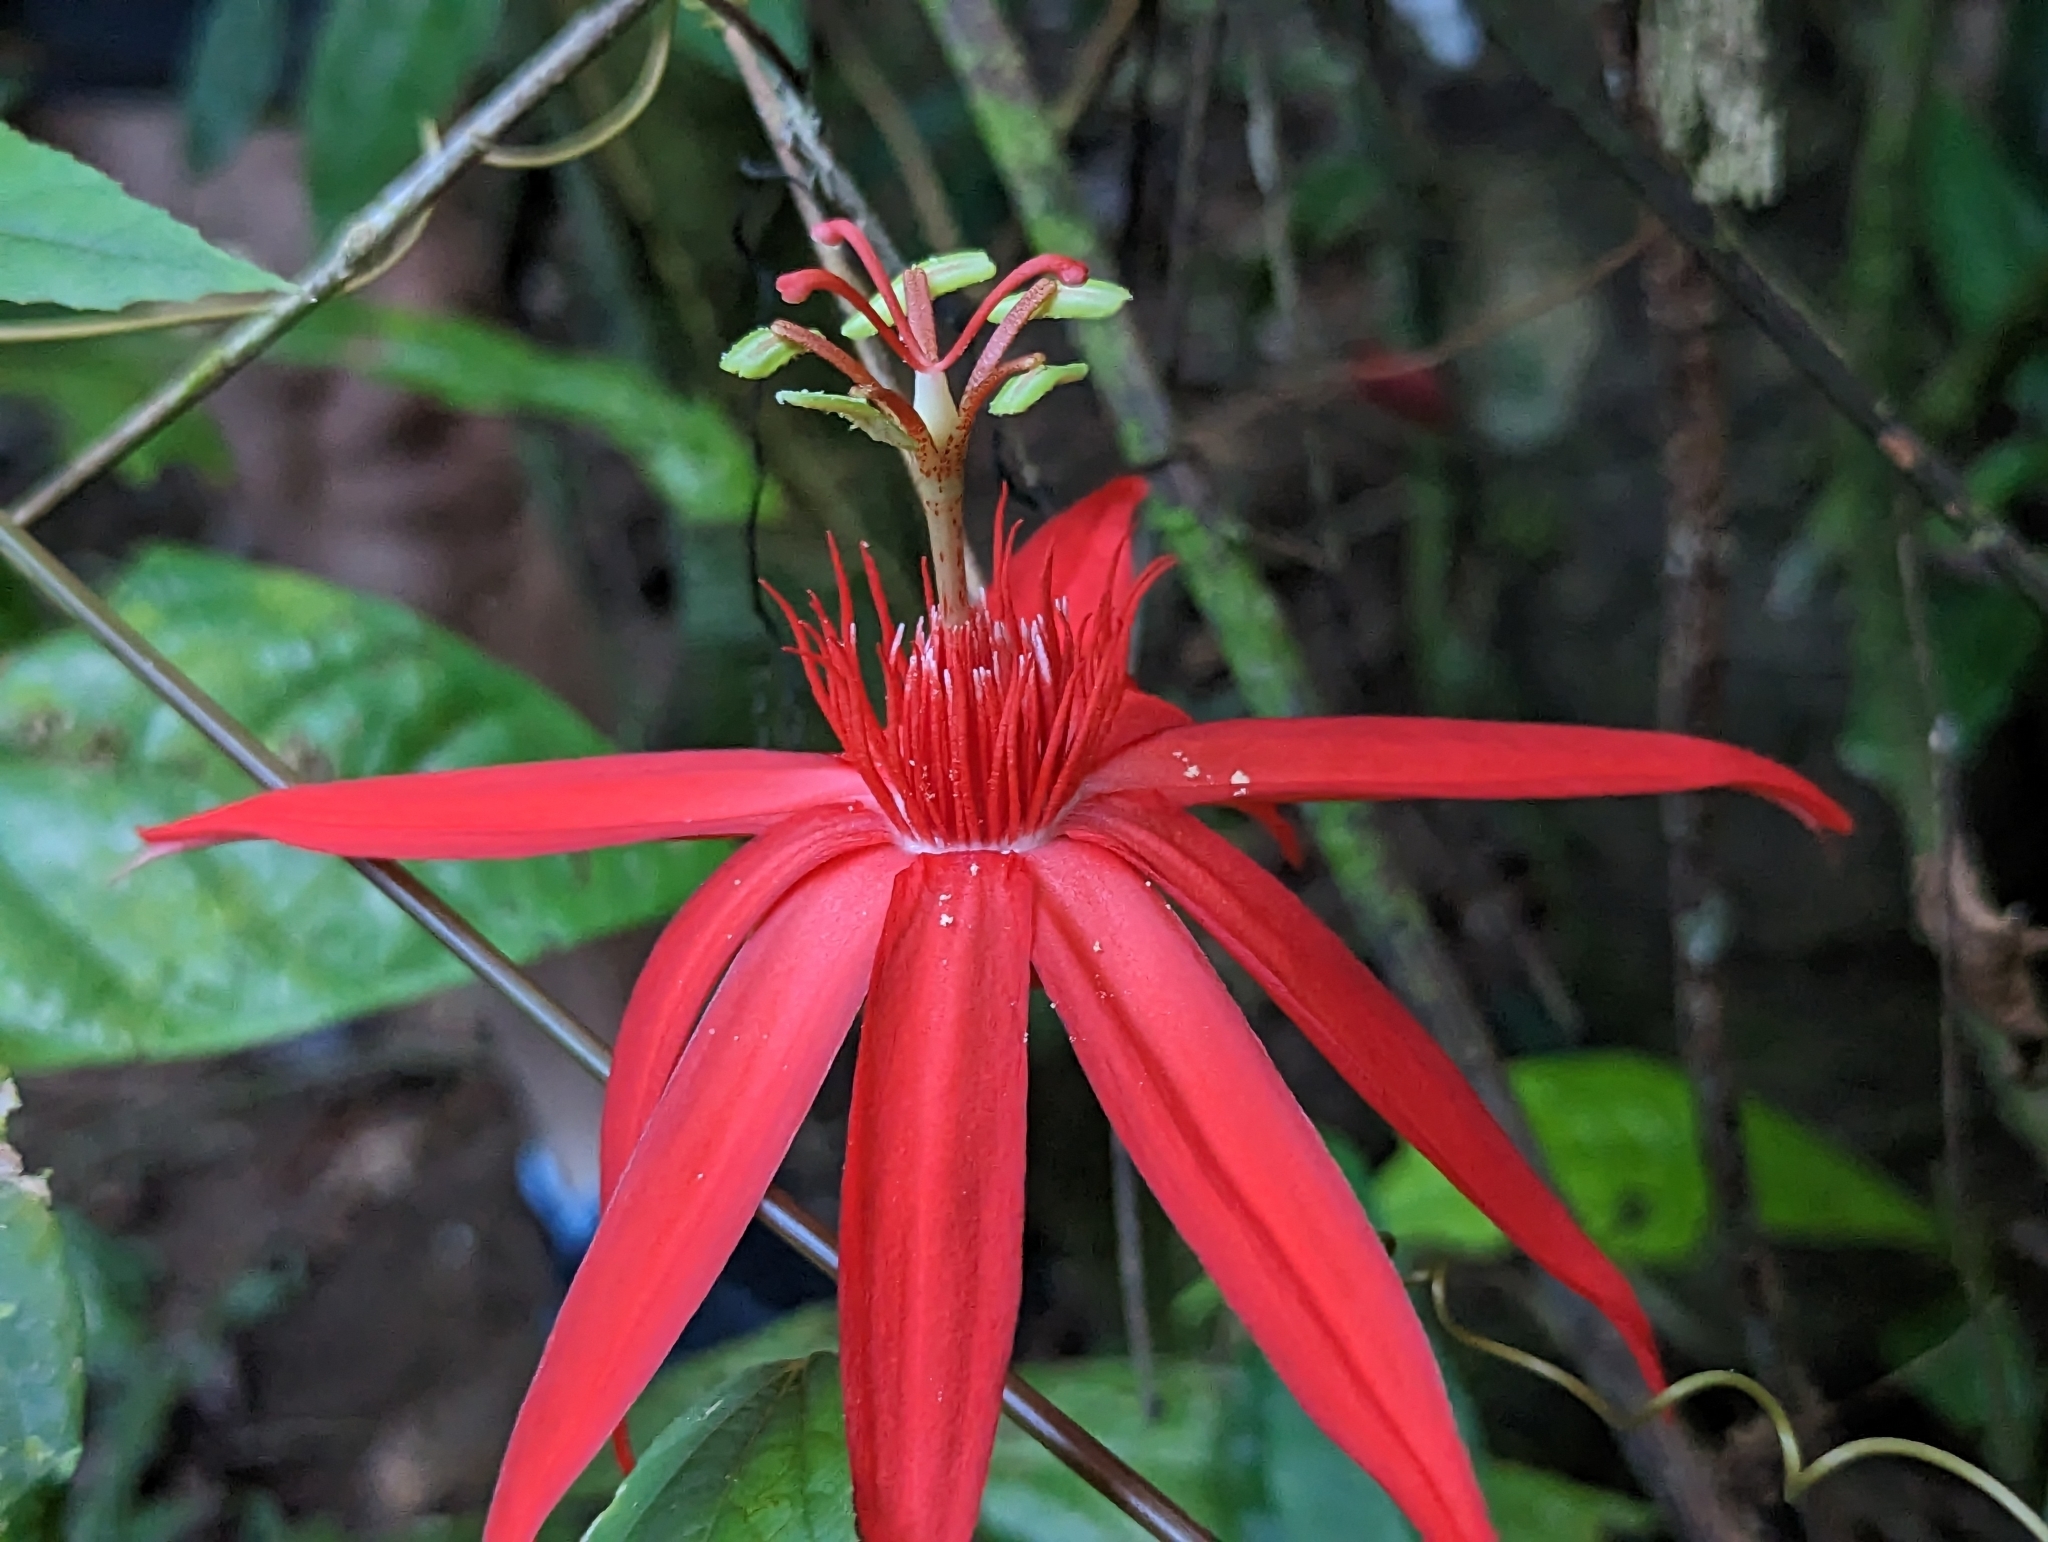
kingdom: Plantae
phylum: Tracheophyta
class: Magnoliopsida
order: Malpighiales
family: Passifloraceae
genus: Passiflora
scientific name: Passiflora vitifolia
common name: Perfumed passionflower
